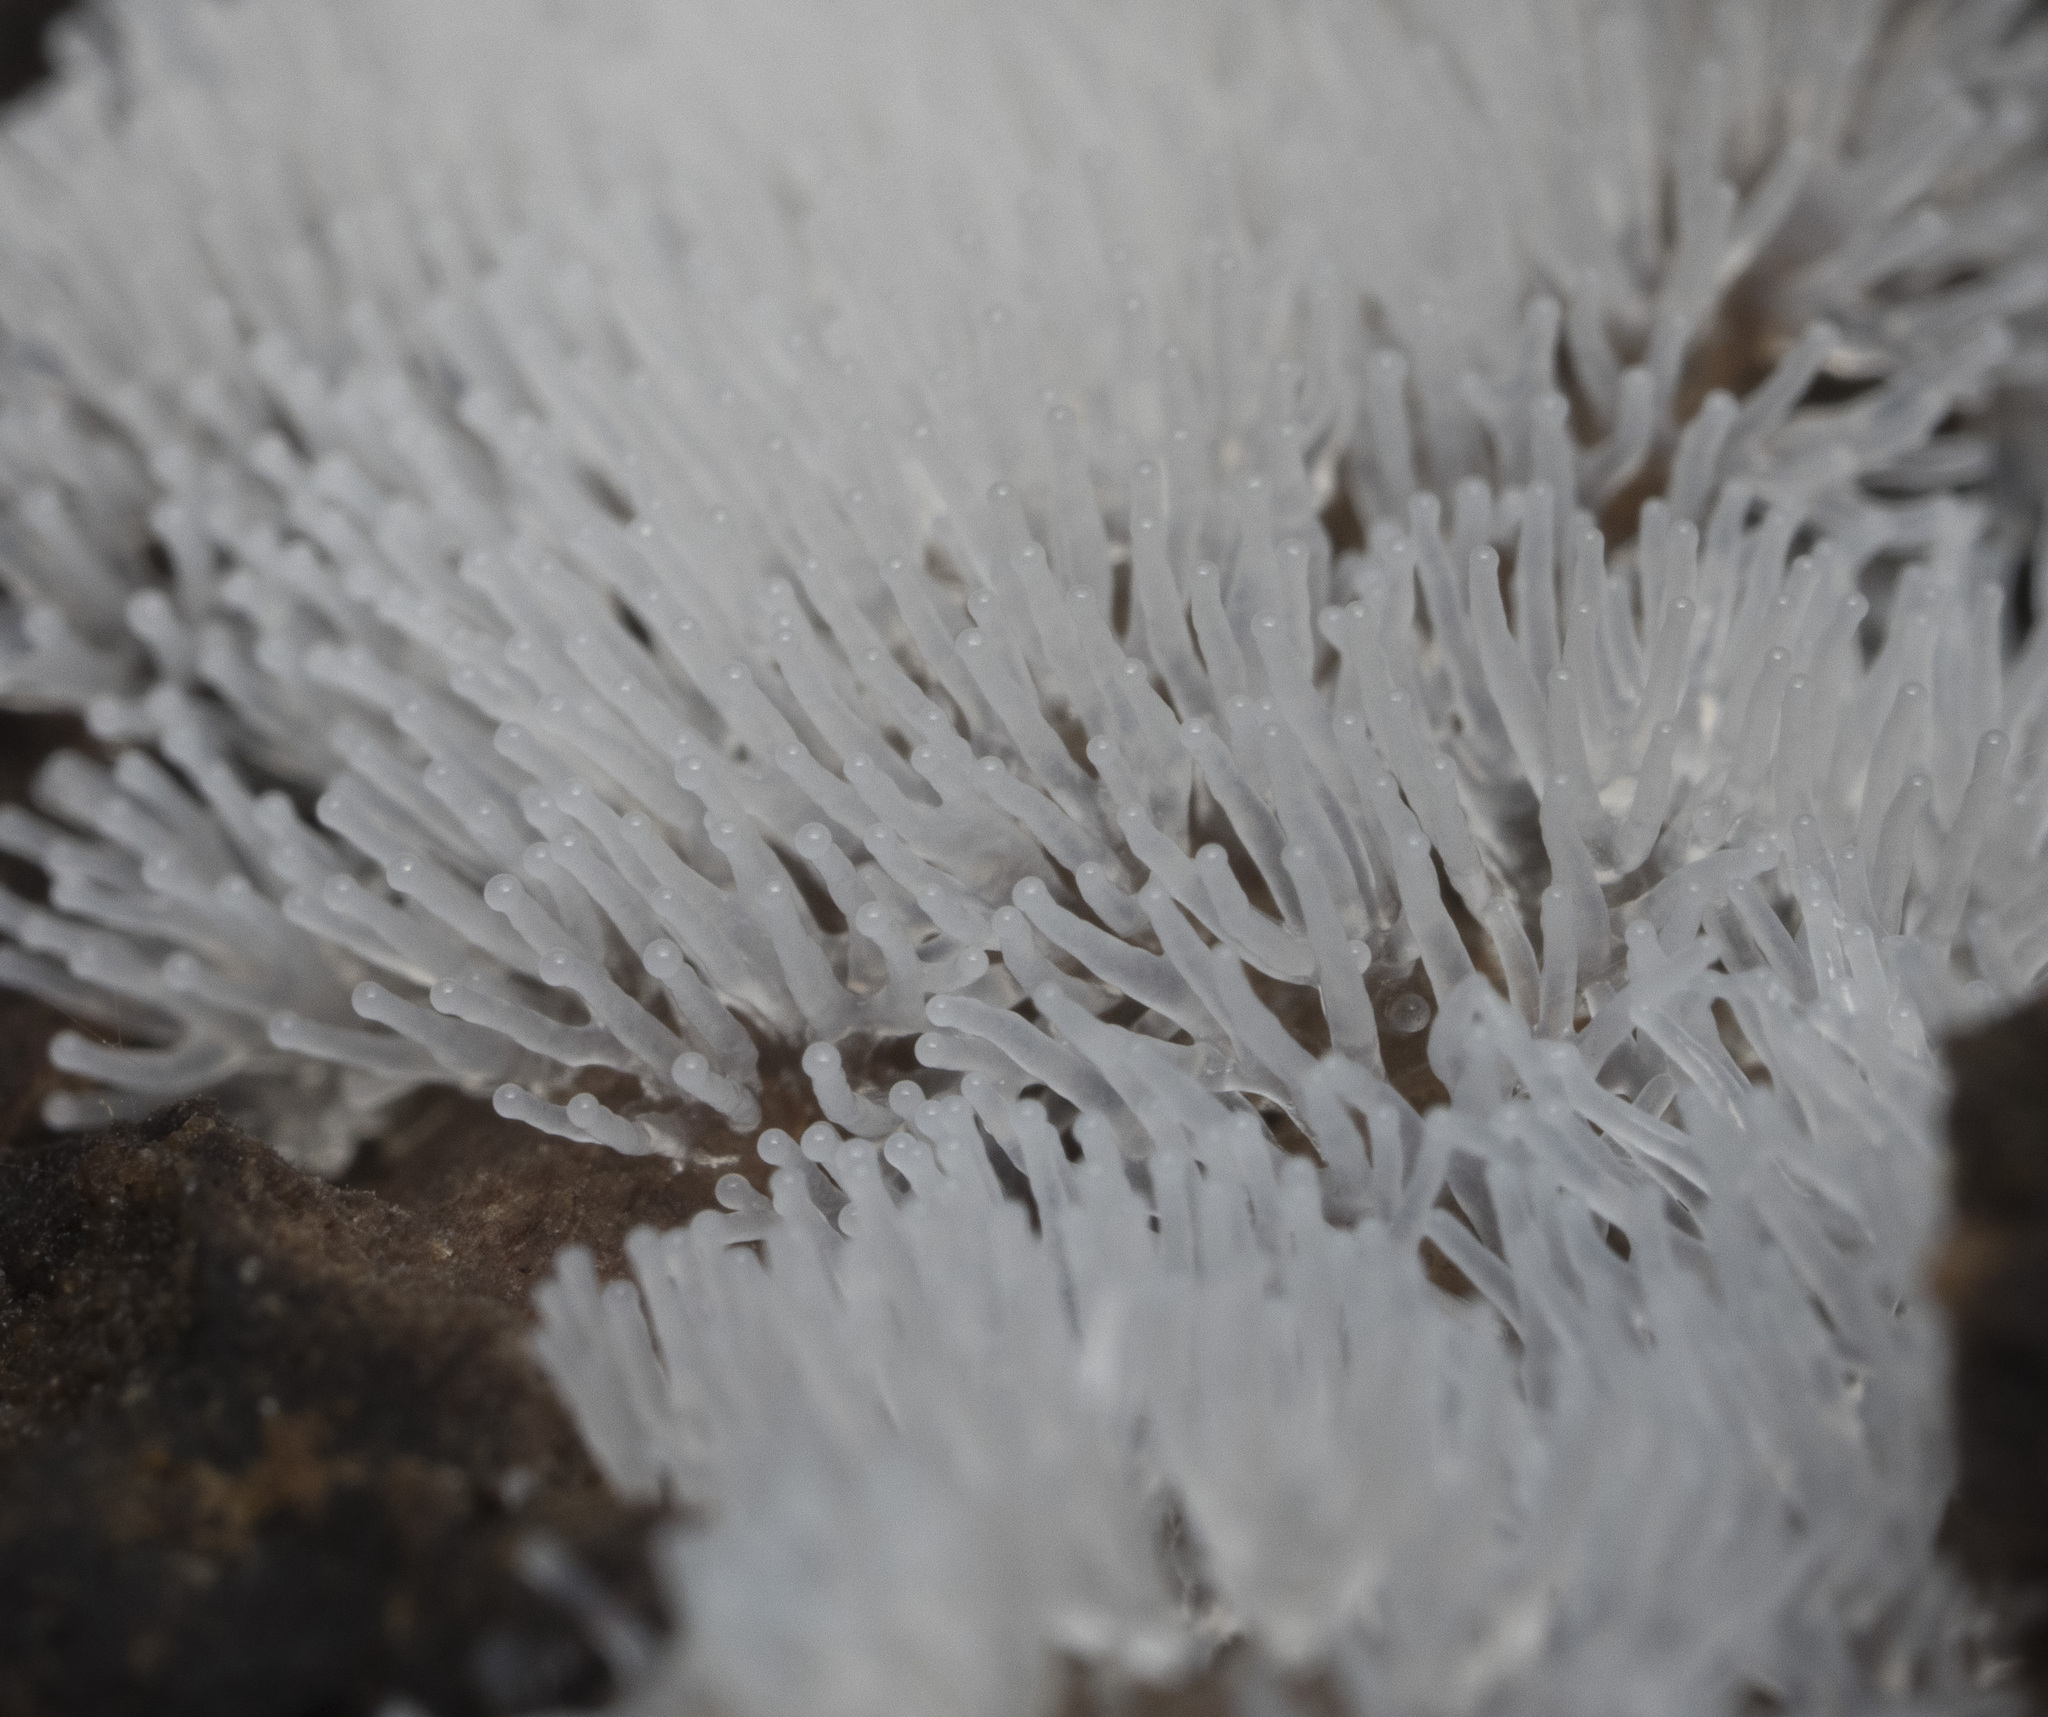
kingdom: Protozoa
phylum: Mycetozoa
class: Protosteliomycetes
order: Ceratiomyxales
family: Ceratiomyxaceae
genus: Ceratiomyxa
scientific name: Ceratiomyxa fruticulosa
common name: Honeycomb coral slime mold
